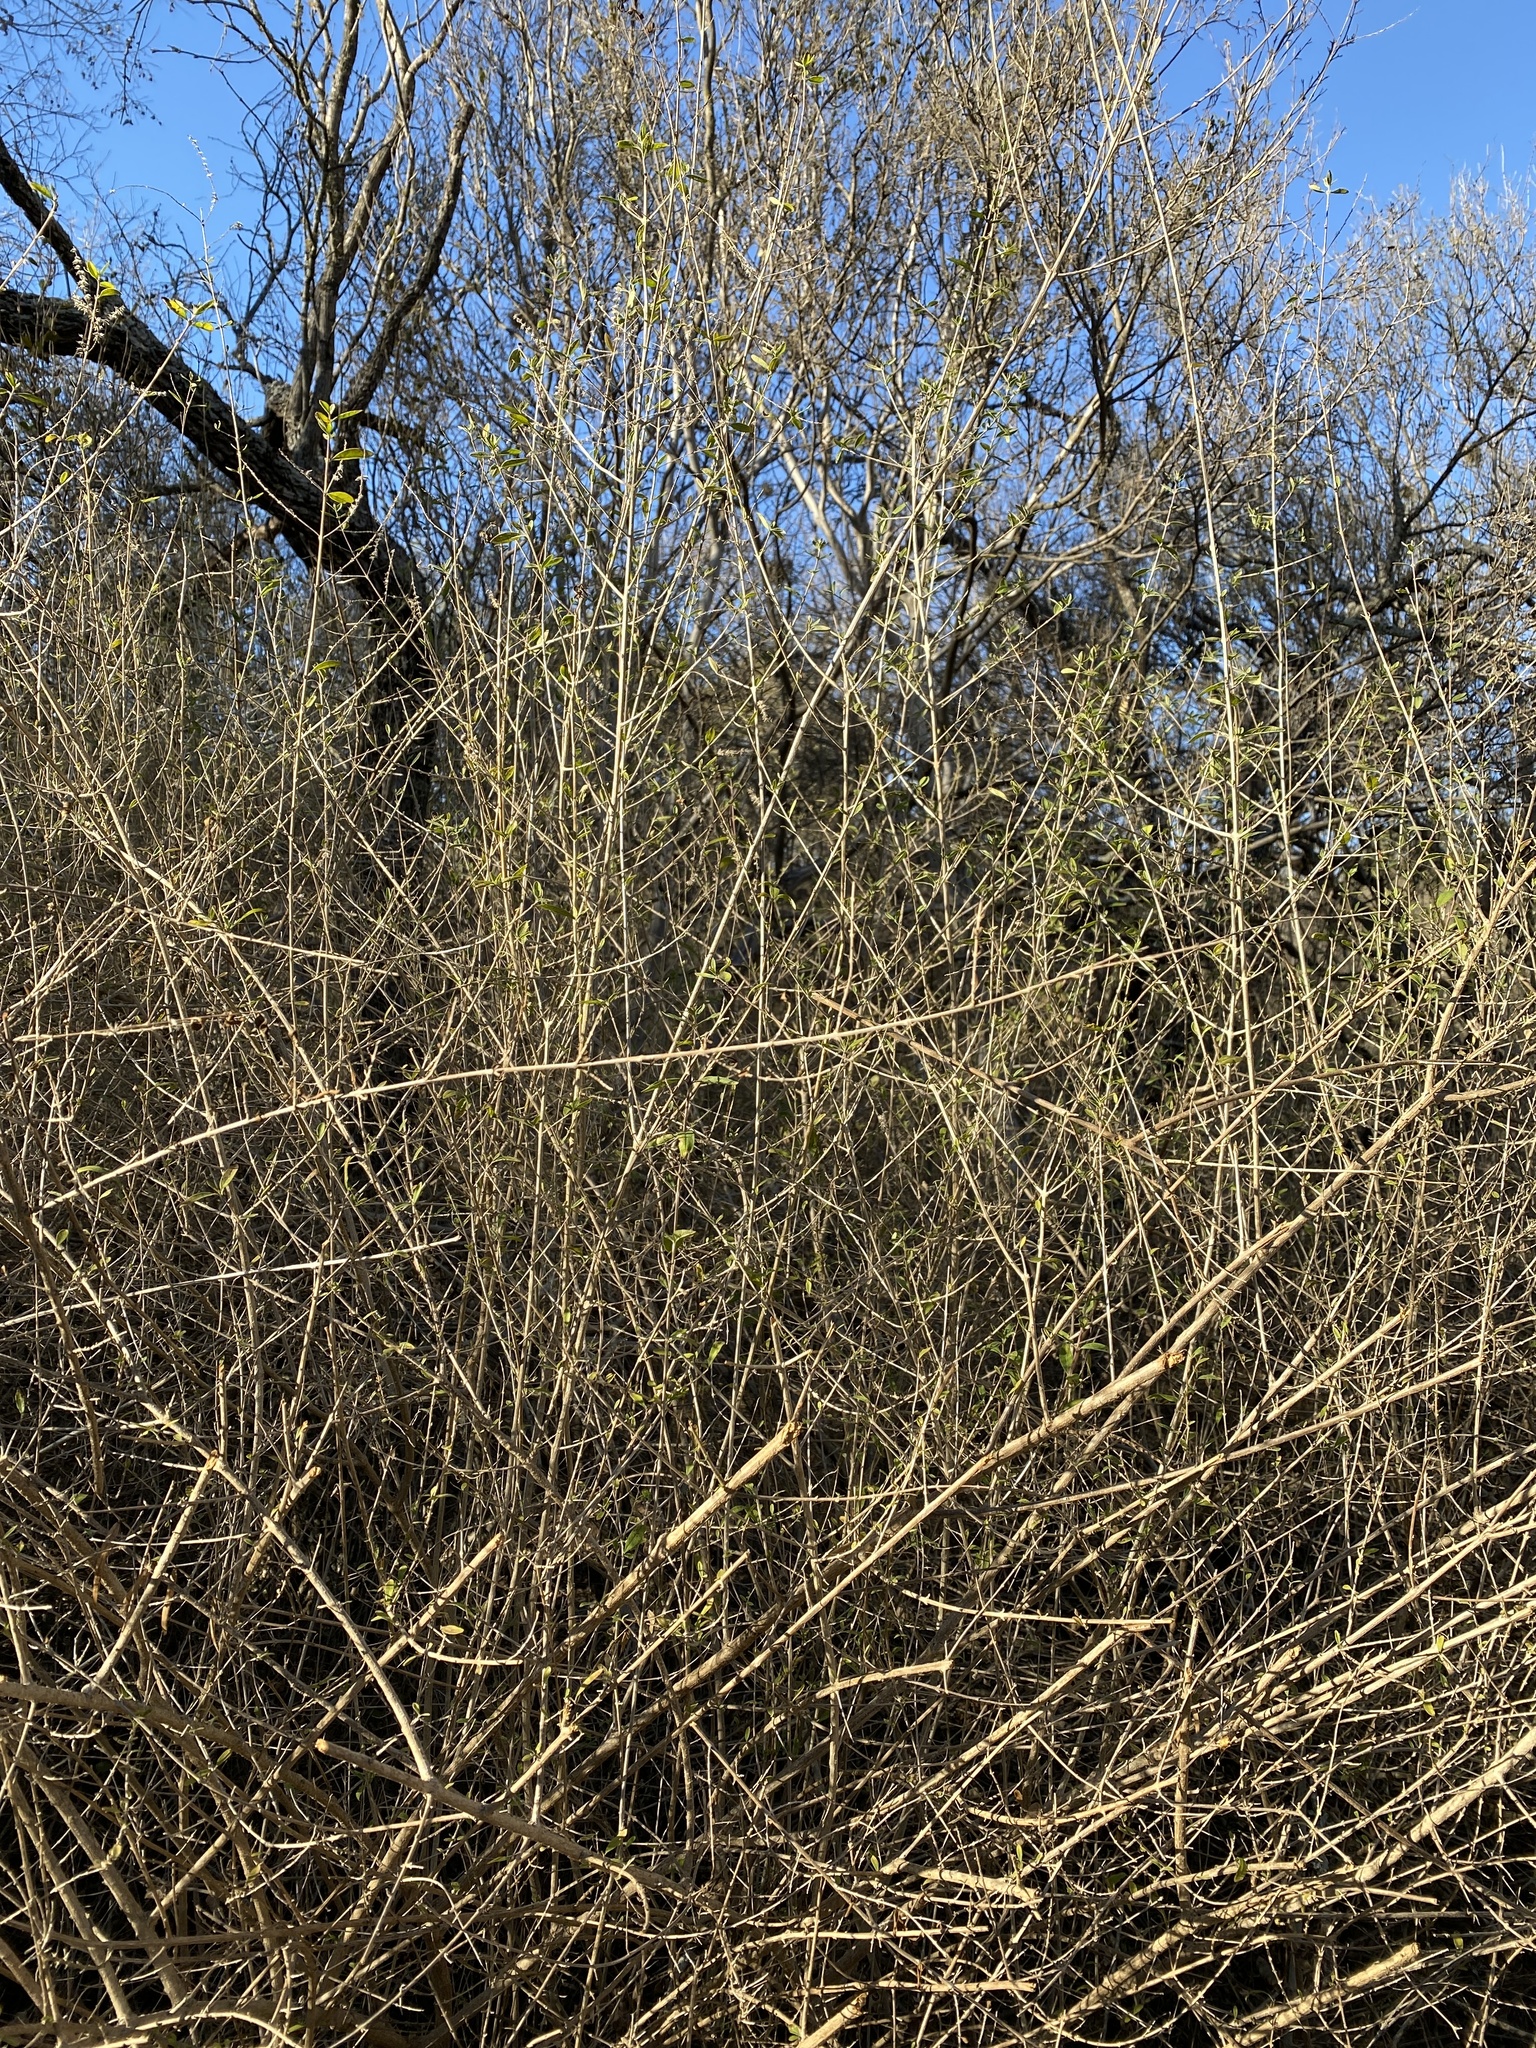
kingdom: Plantae
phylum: Tracheophyta
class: Magnoliopsida
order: Lamiales
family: Verbenaceae
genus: Aloysia
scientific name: Aloysia gratissima
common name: Common bee-brush
